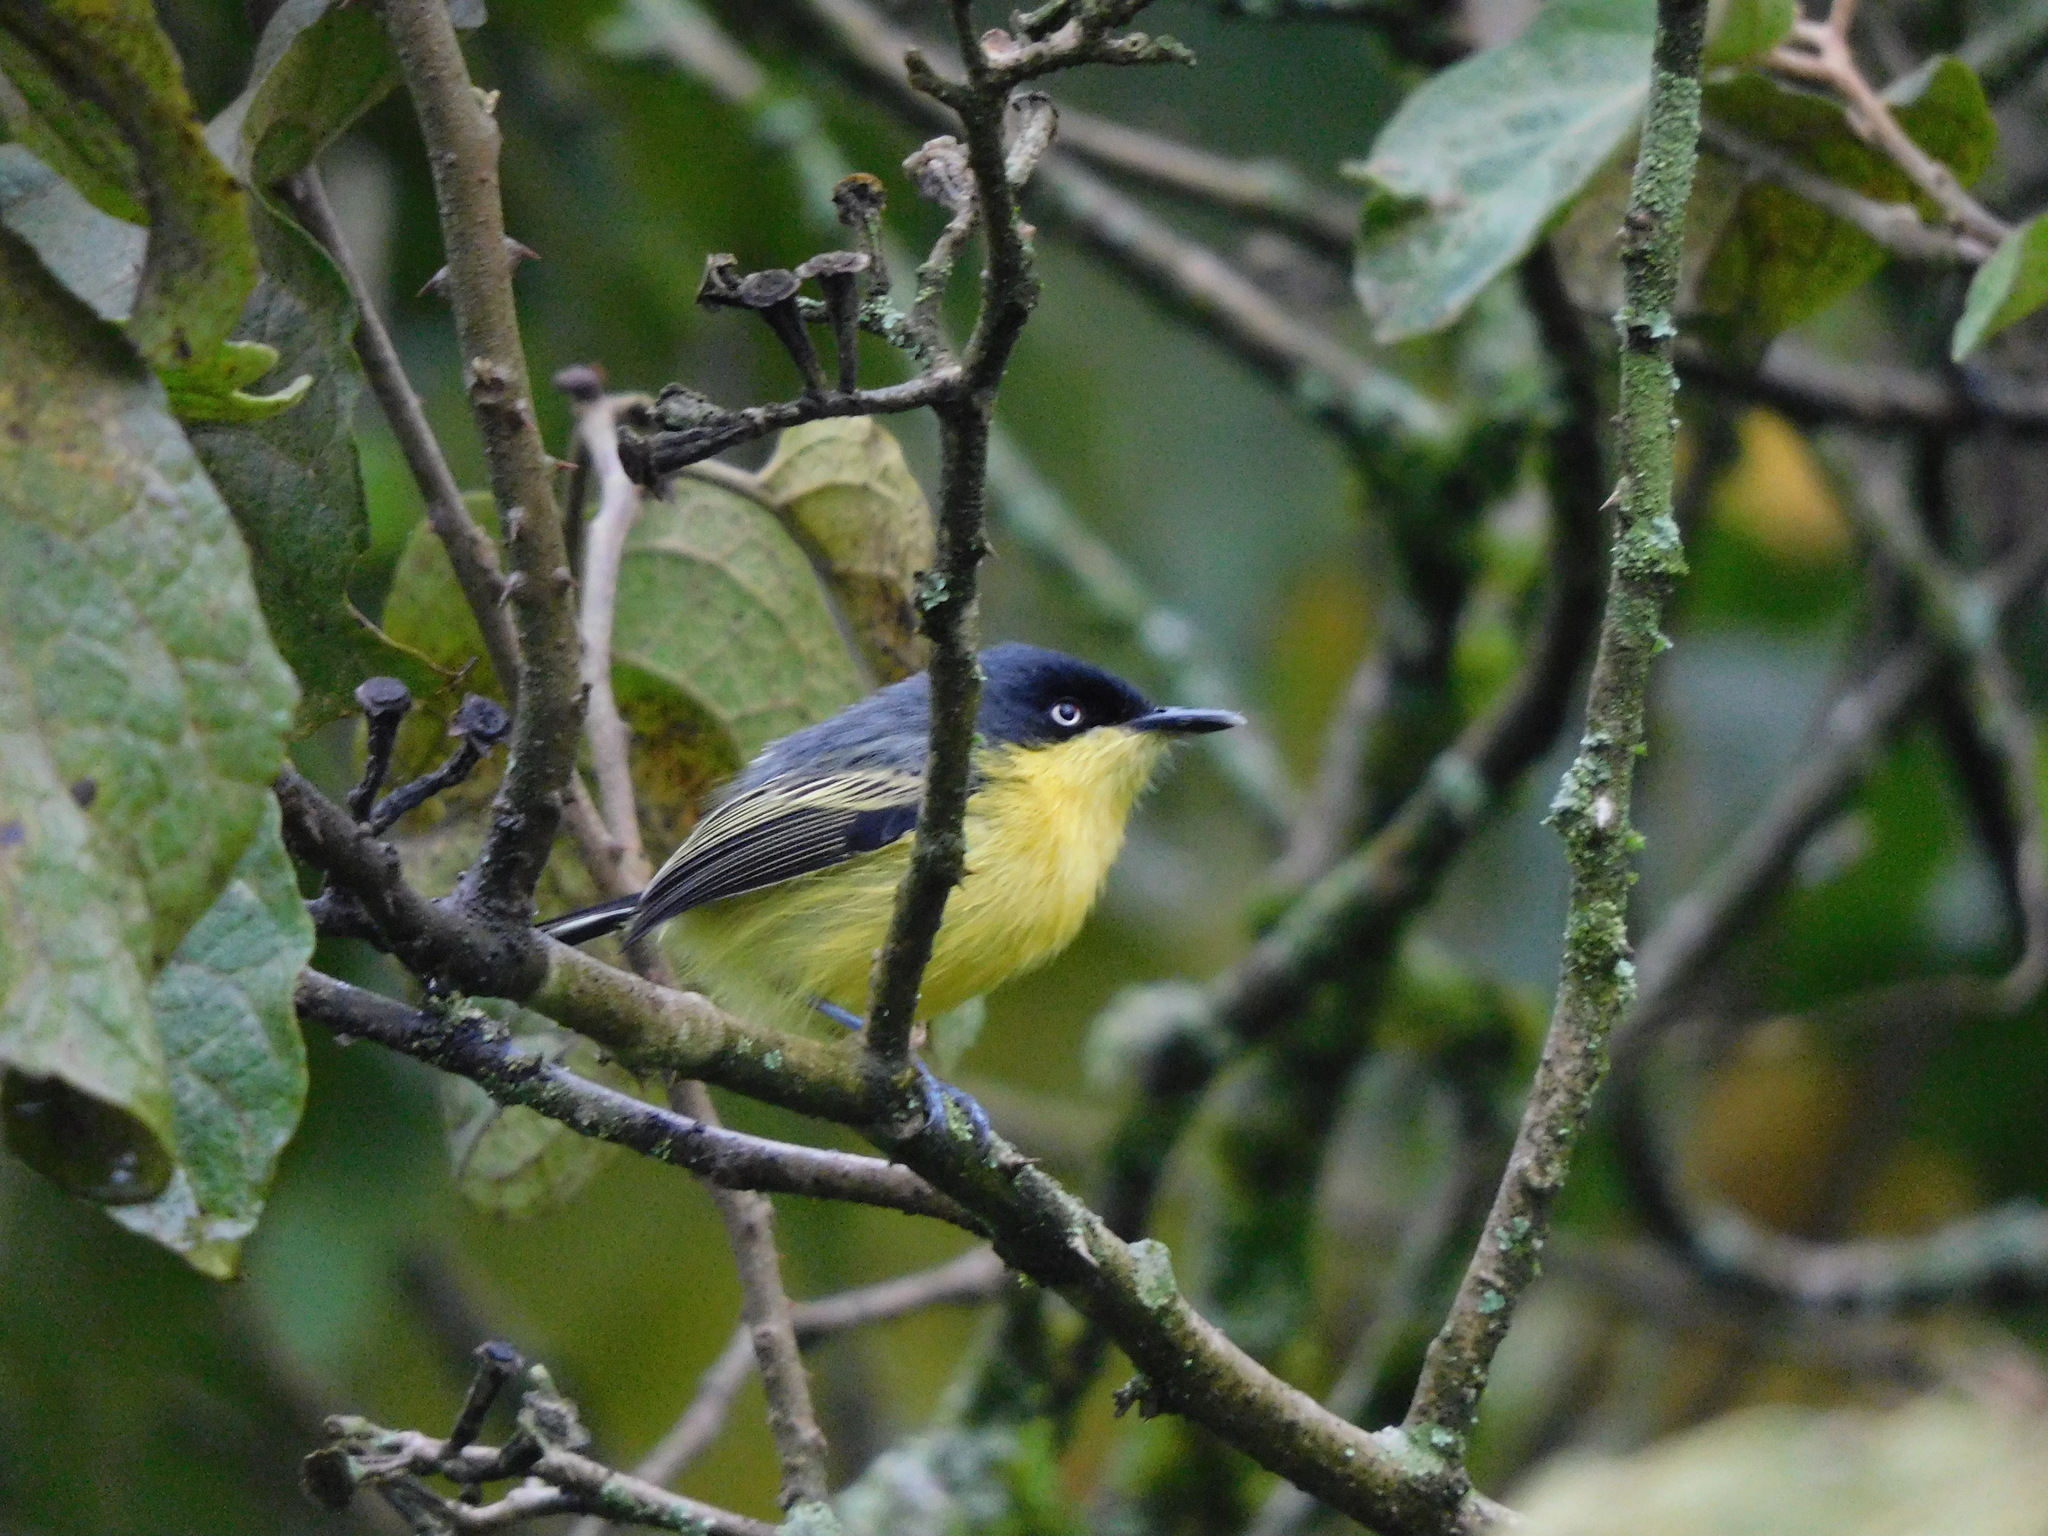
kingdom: Animalia
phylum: Chordata
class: Aves
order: Passeriformes
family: Tyrannidae
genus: Todirostrum
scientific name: Todirostrum cinereum
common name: Common tody-flycatcher
